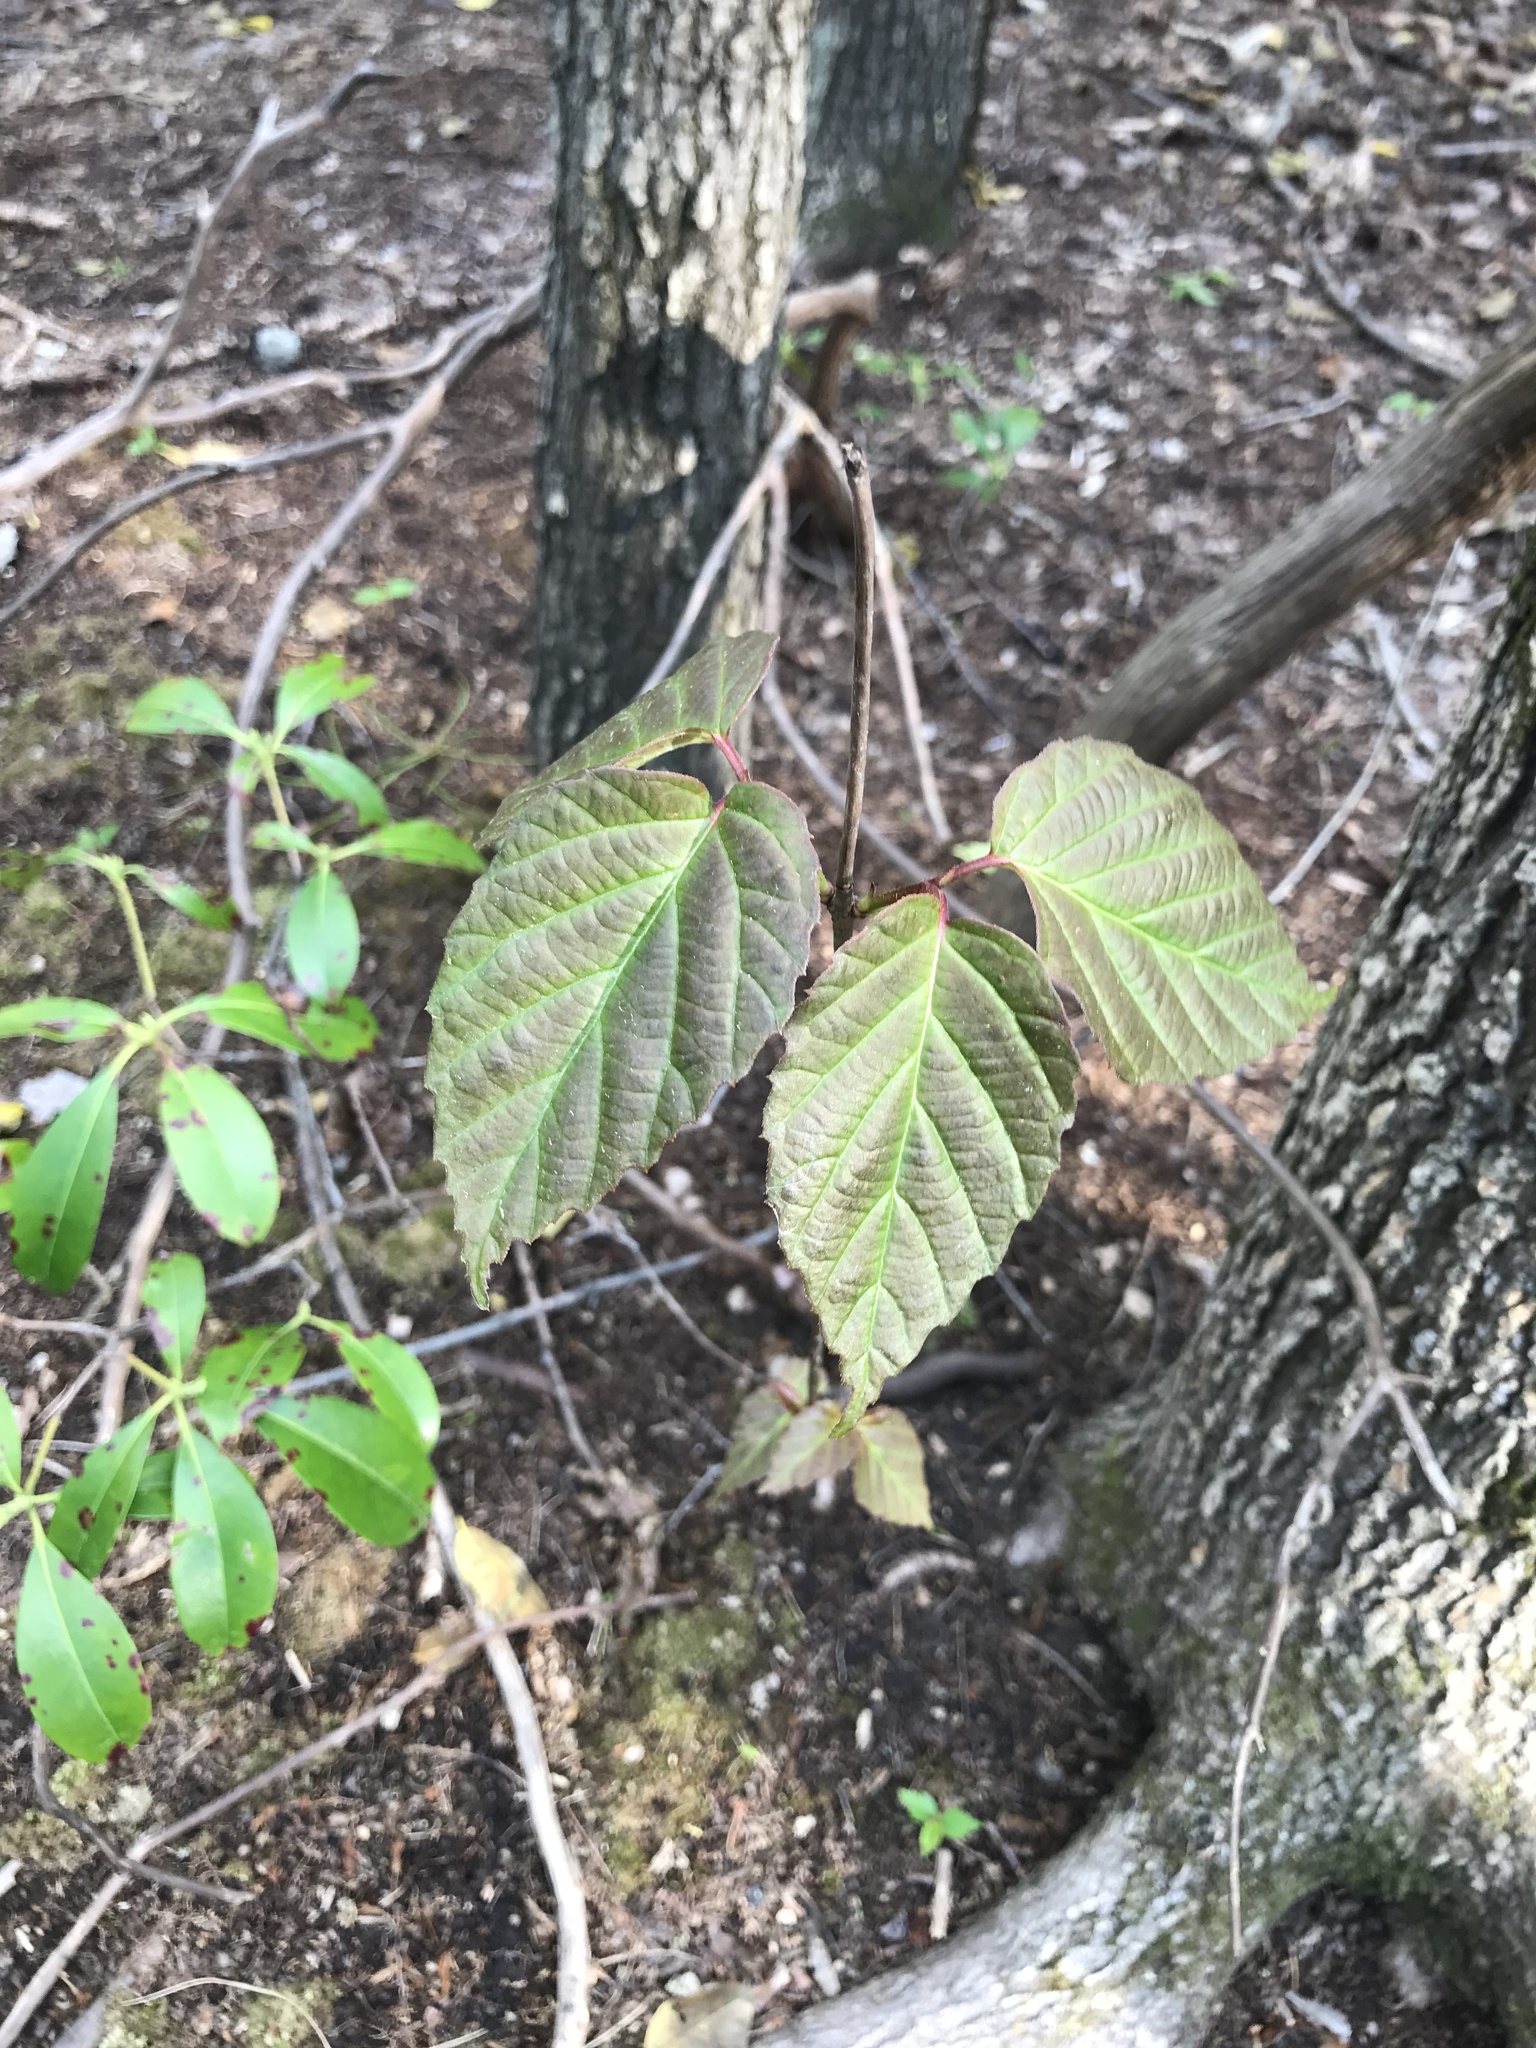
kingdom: Plantae
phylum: Tracheophyta
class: Magnoliopsida
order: Dipsacales
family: Viburnaceae
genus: Viburnum
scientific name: Viburnum setigerum
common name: Tea viburnum
